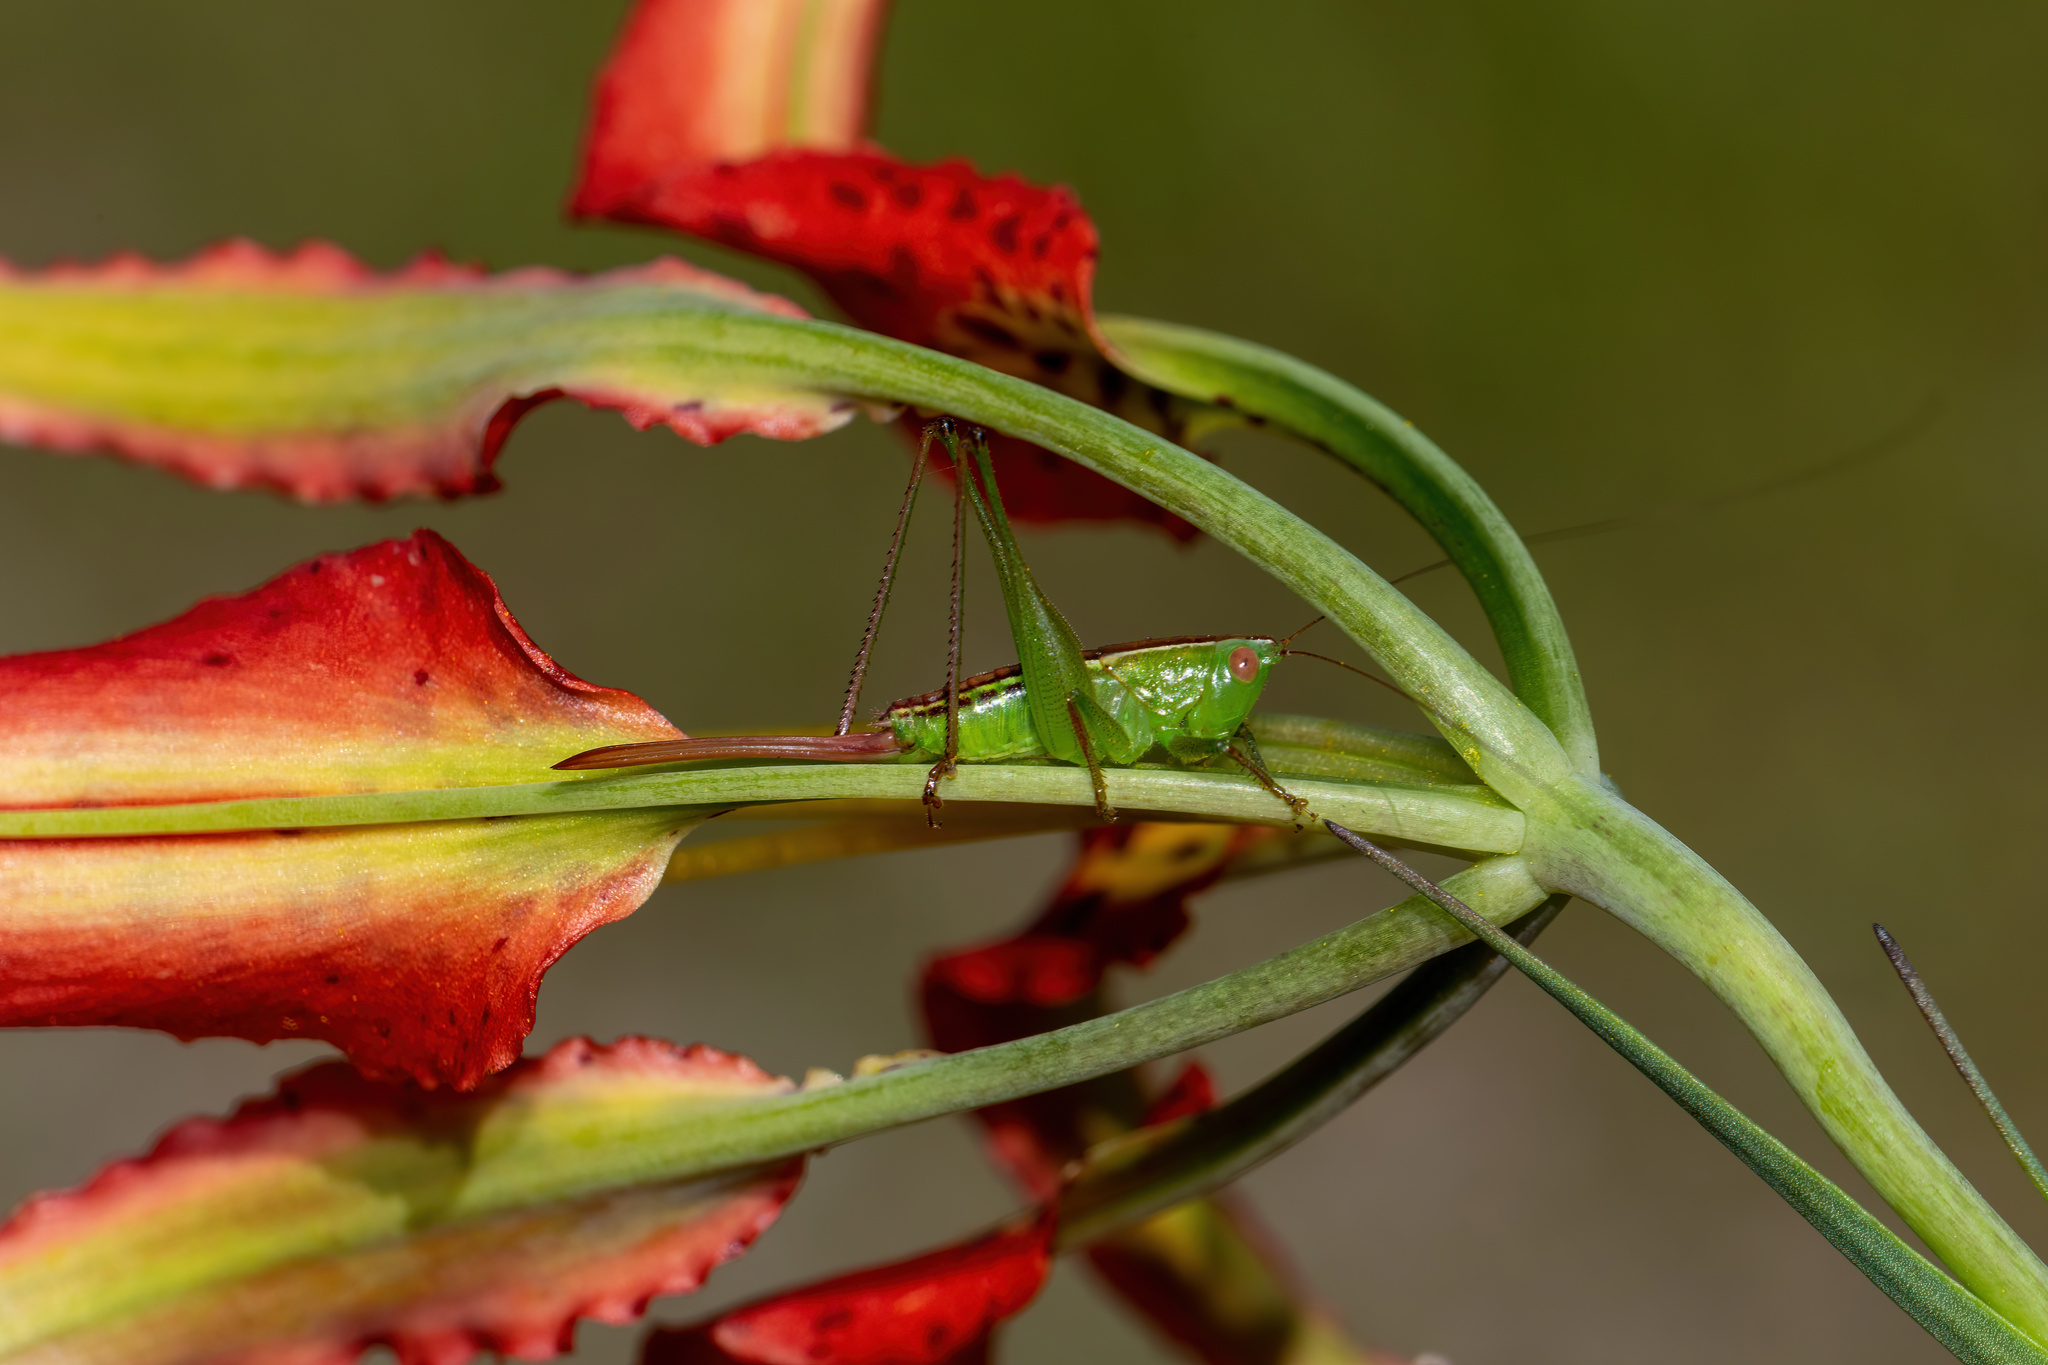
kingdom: Animalia
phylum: Arthropoda
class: Insecta
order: Orthoptera
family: Tettigoniidae
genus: Odontoxiphidium
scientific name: Odontoxiphidium apterum
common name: Wingless meadow katydid
